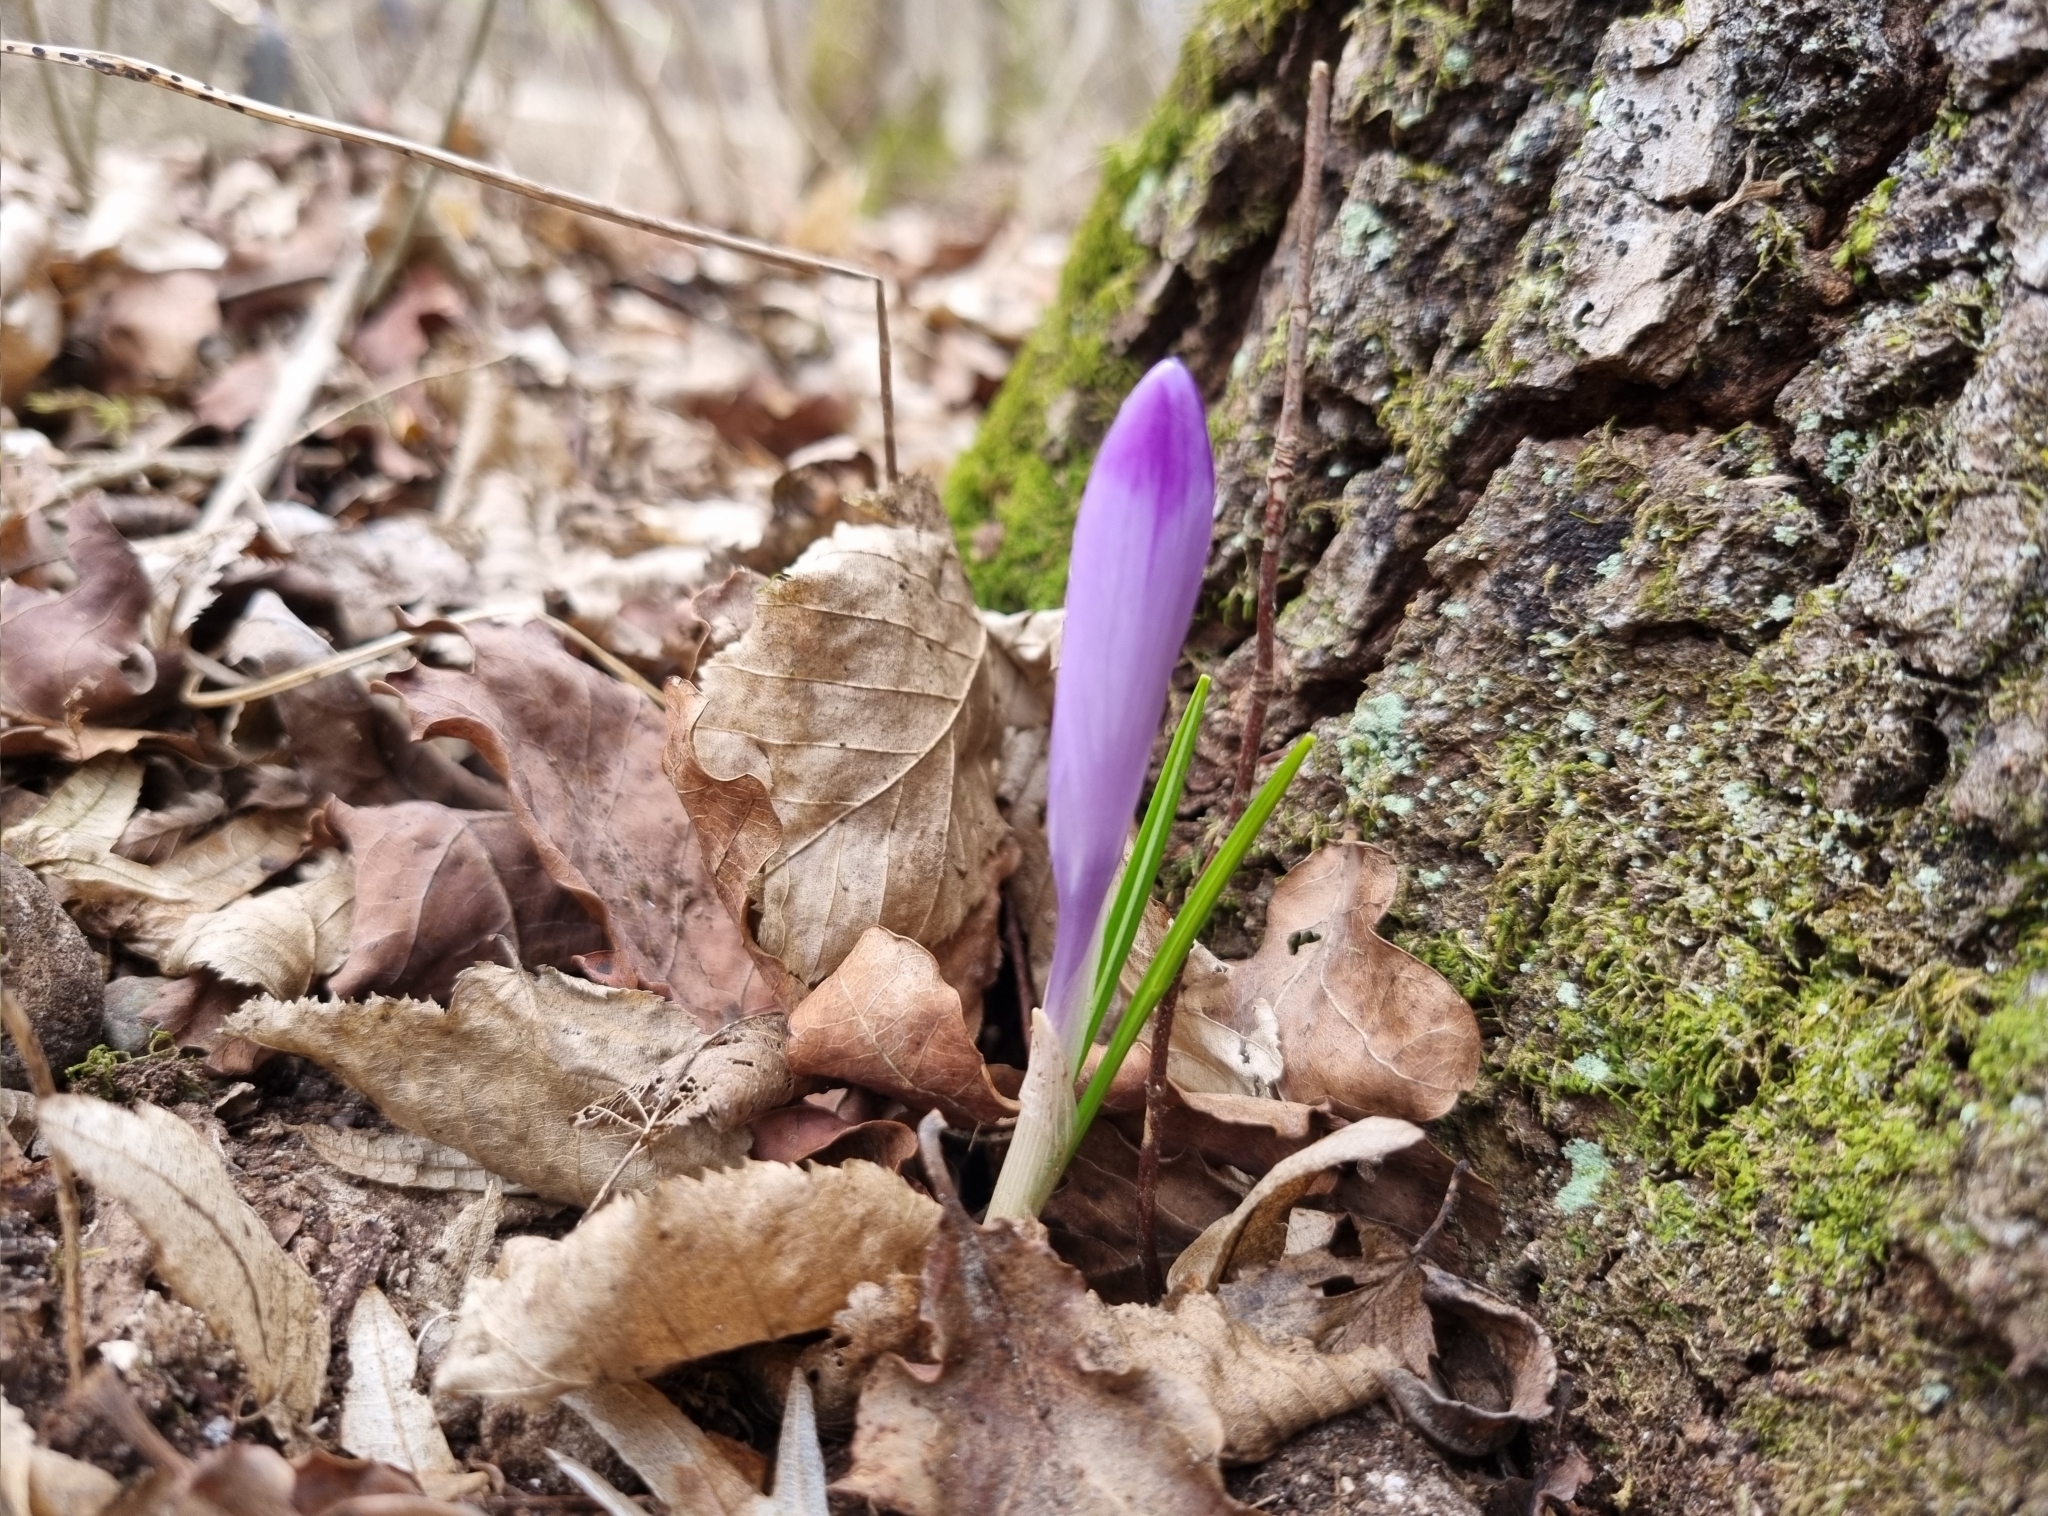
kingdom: Plantae
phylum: Tracheophyta
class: Liliopsida
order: Asparagales
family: Iridaceae
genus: Crocus
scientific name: Crocus heuffelianus
